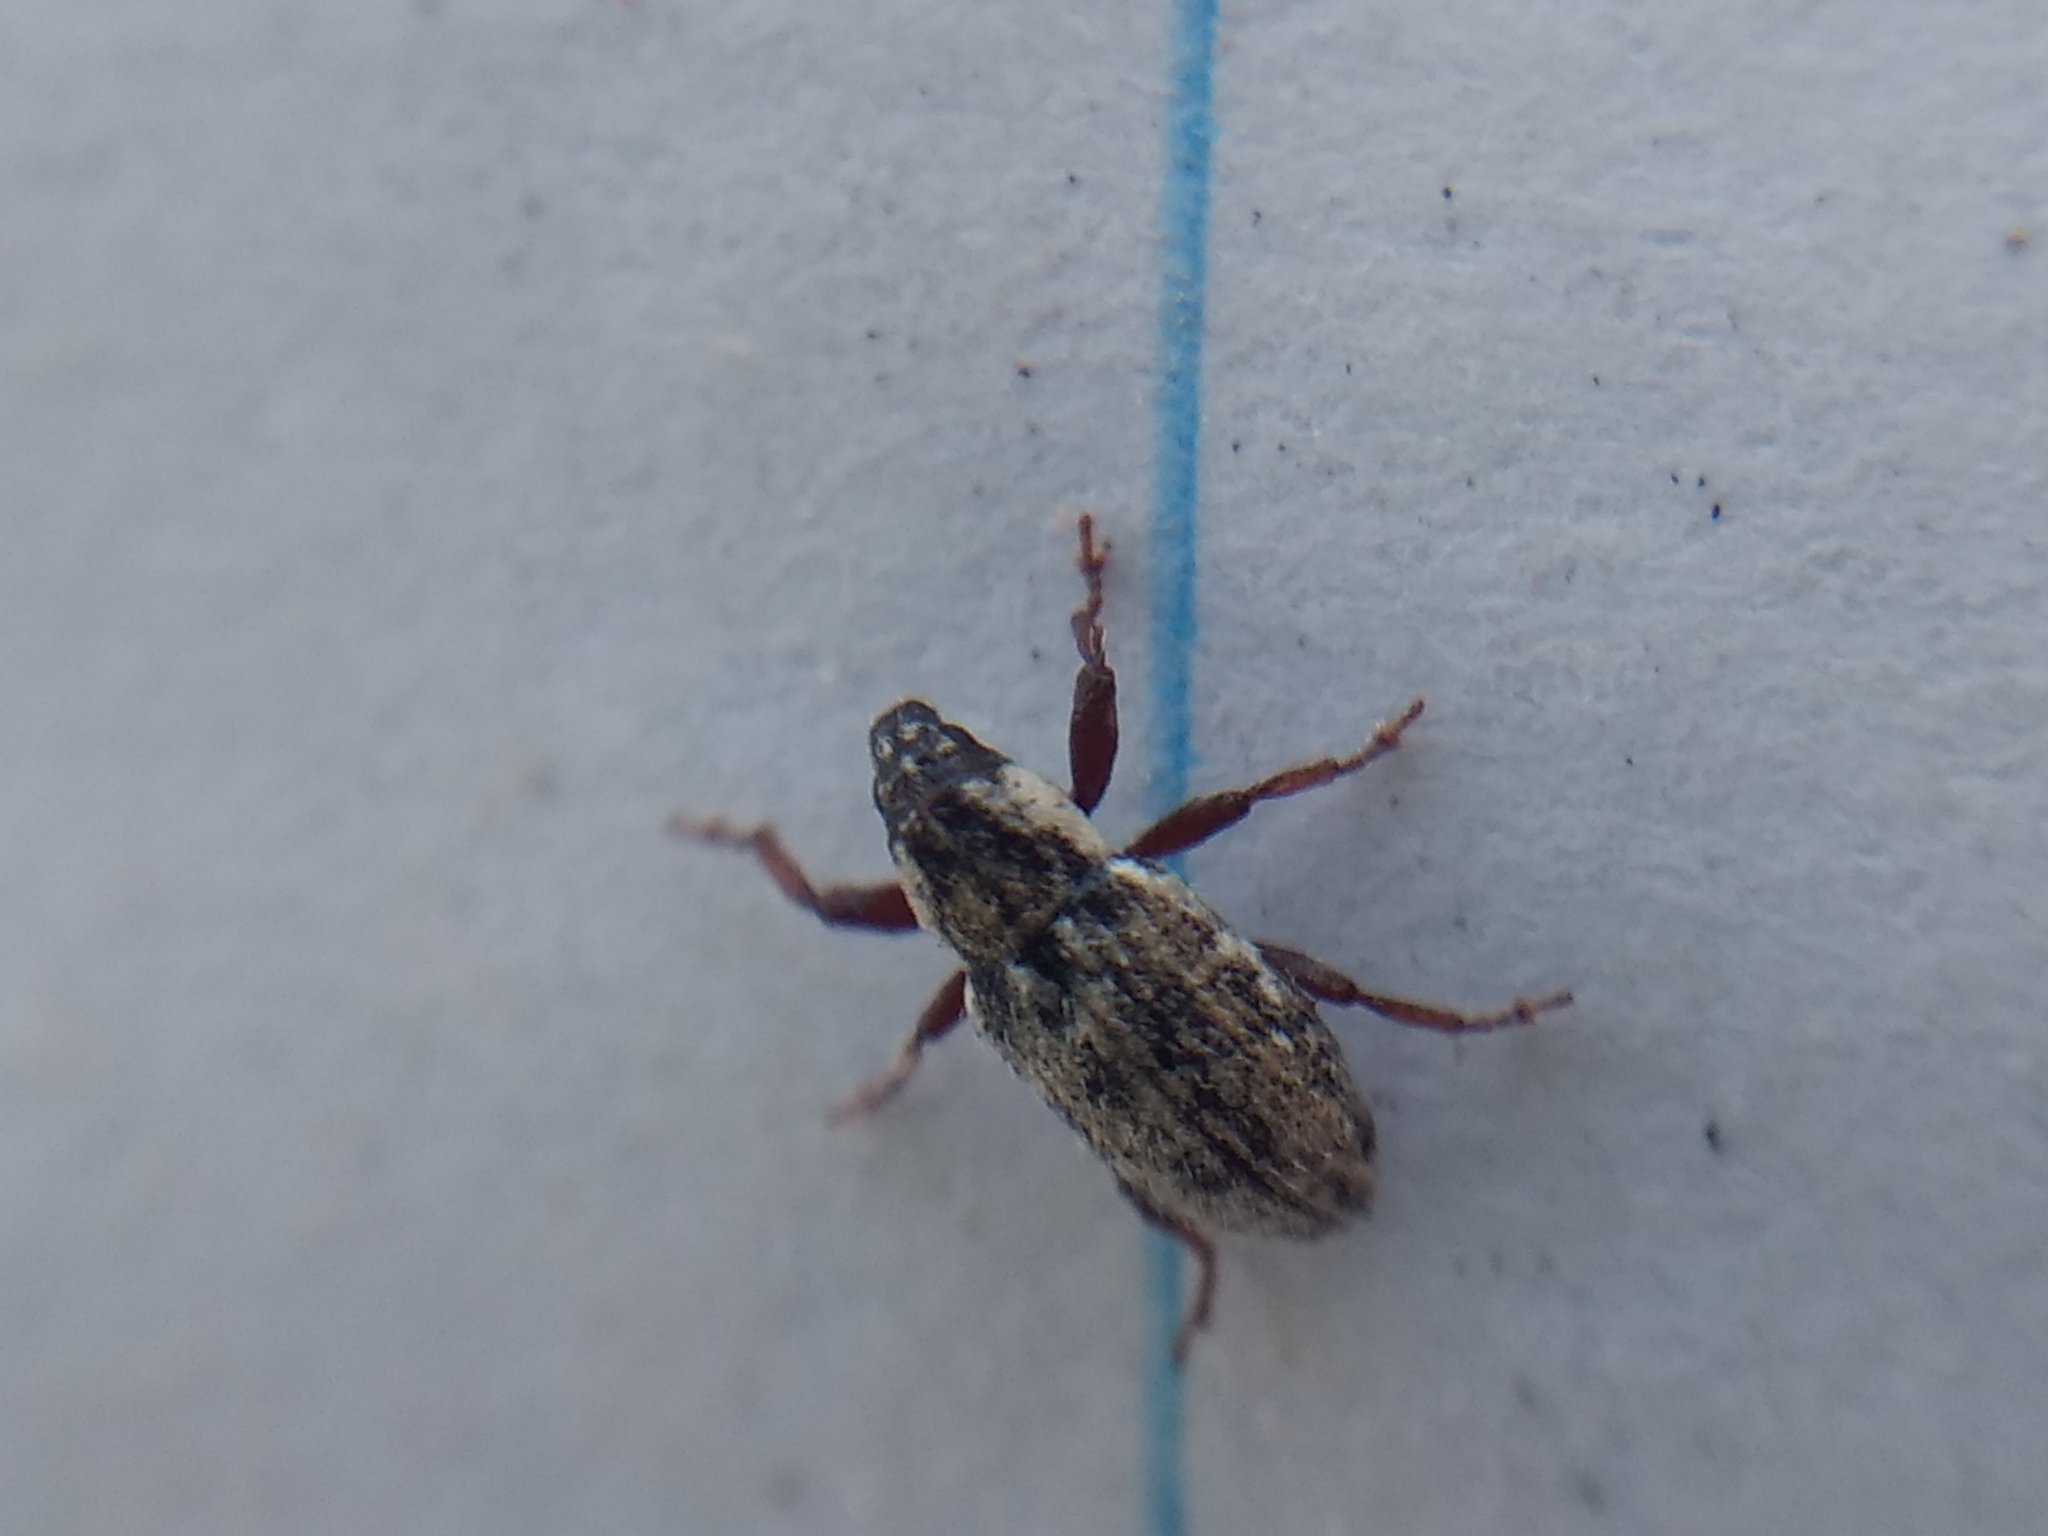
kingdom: Animalia
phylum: Arthropoda
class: Insecta
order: Coleoptera
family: Curculionidae
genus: Microlarinus
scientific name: Microlarinus lareynii
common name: Weevil
